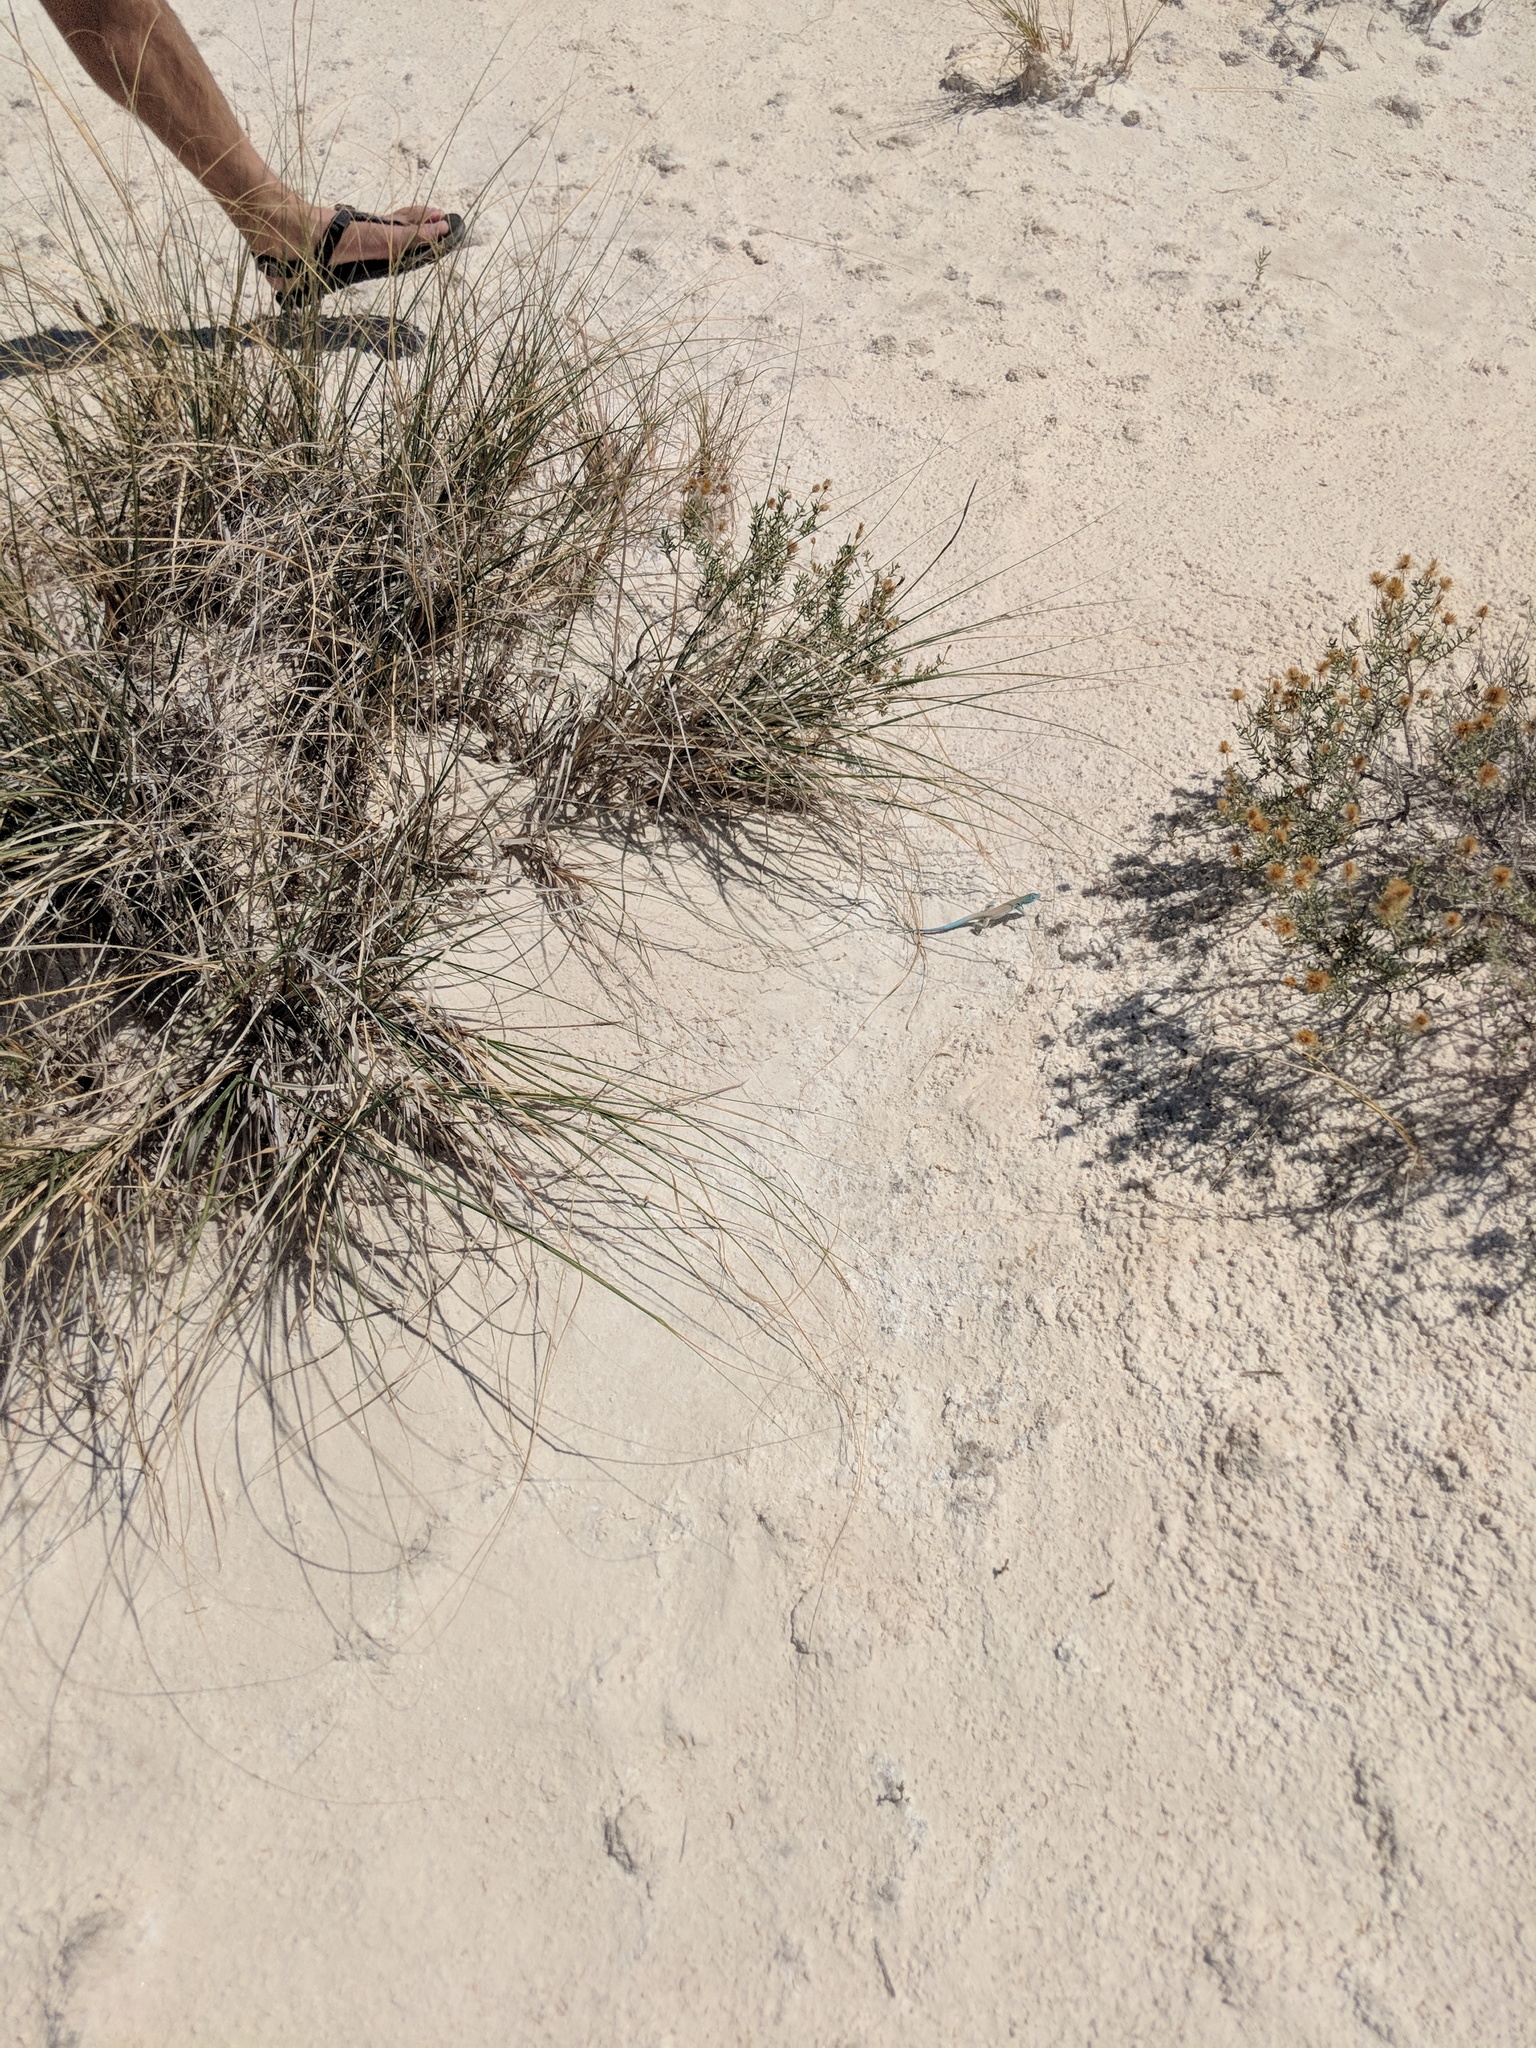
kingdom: Animalia
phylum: Chordata
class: Squamata
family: Teiidae
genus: Aspidoscelis
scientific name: Aspidoscelis inornatus
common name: Little striped whiptail
